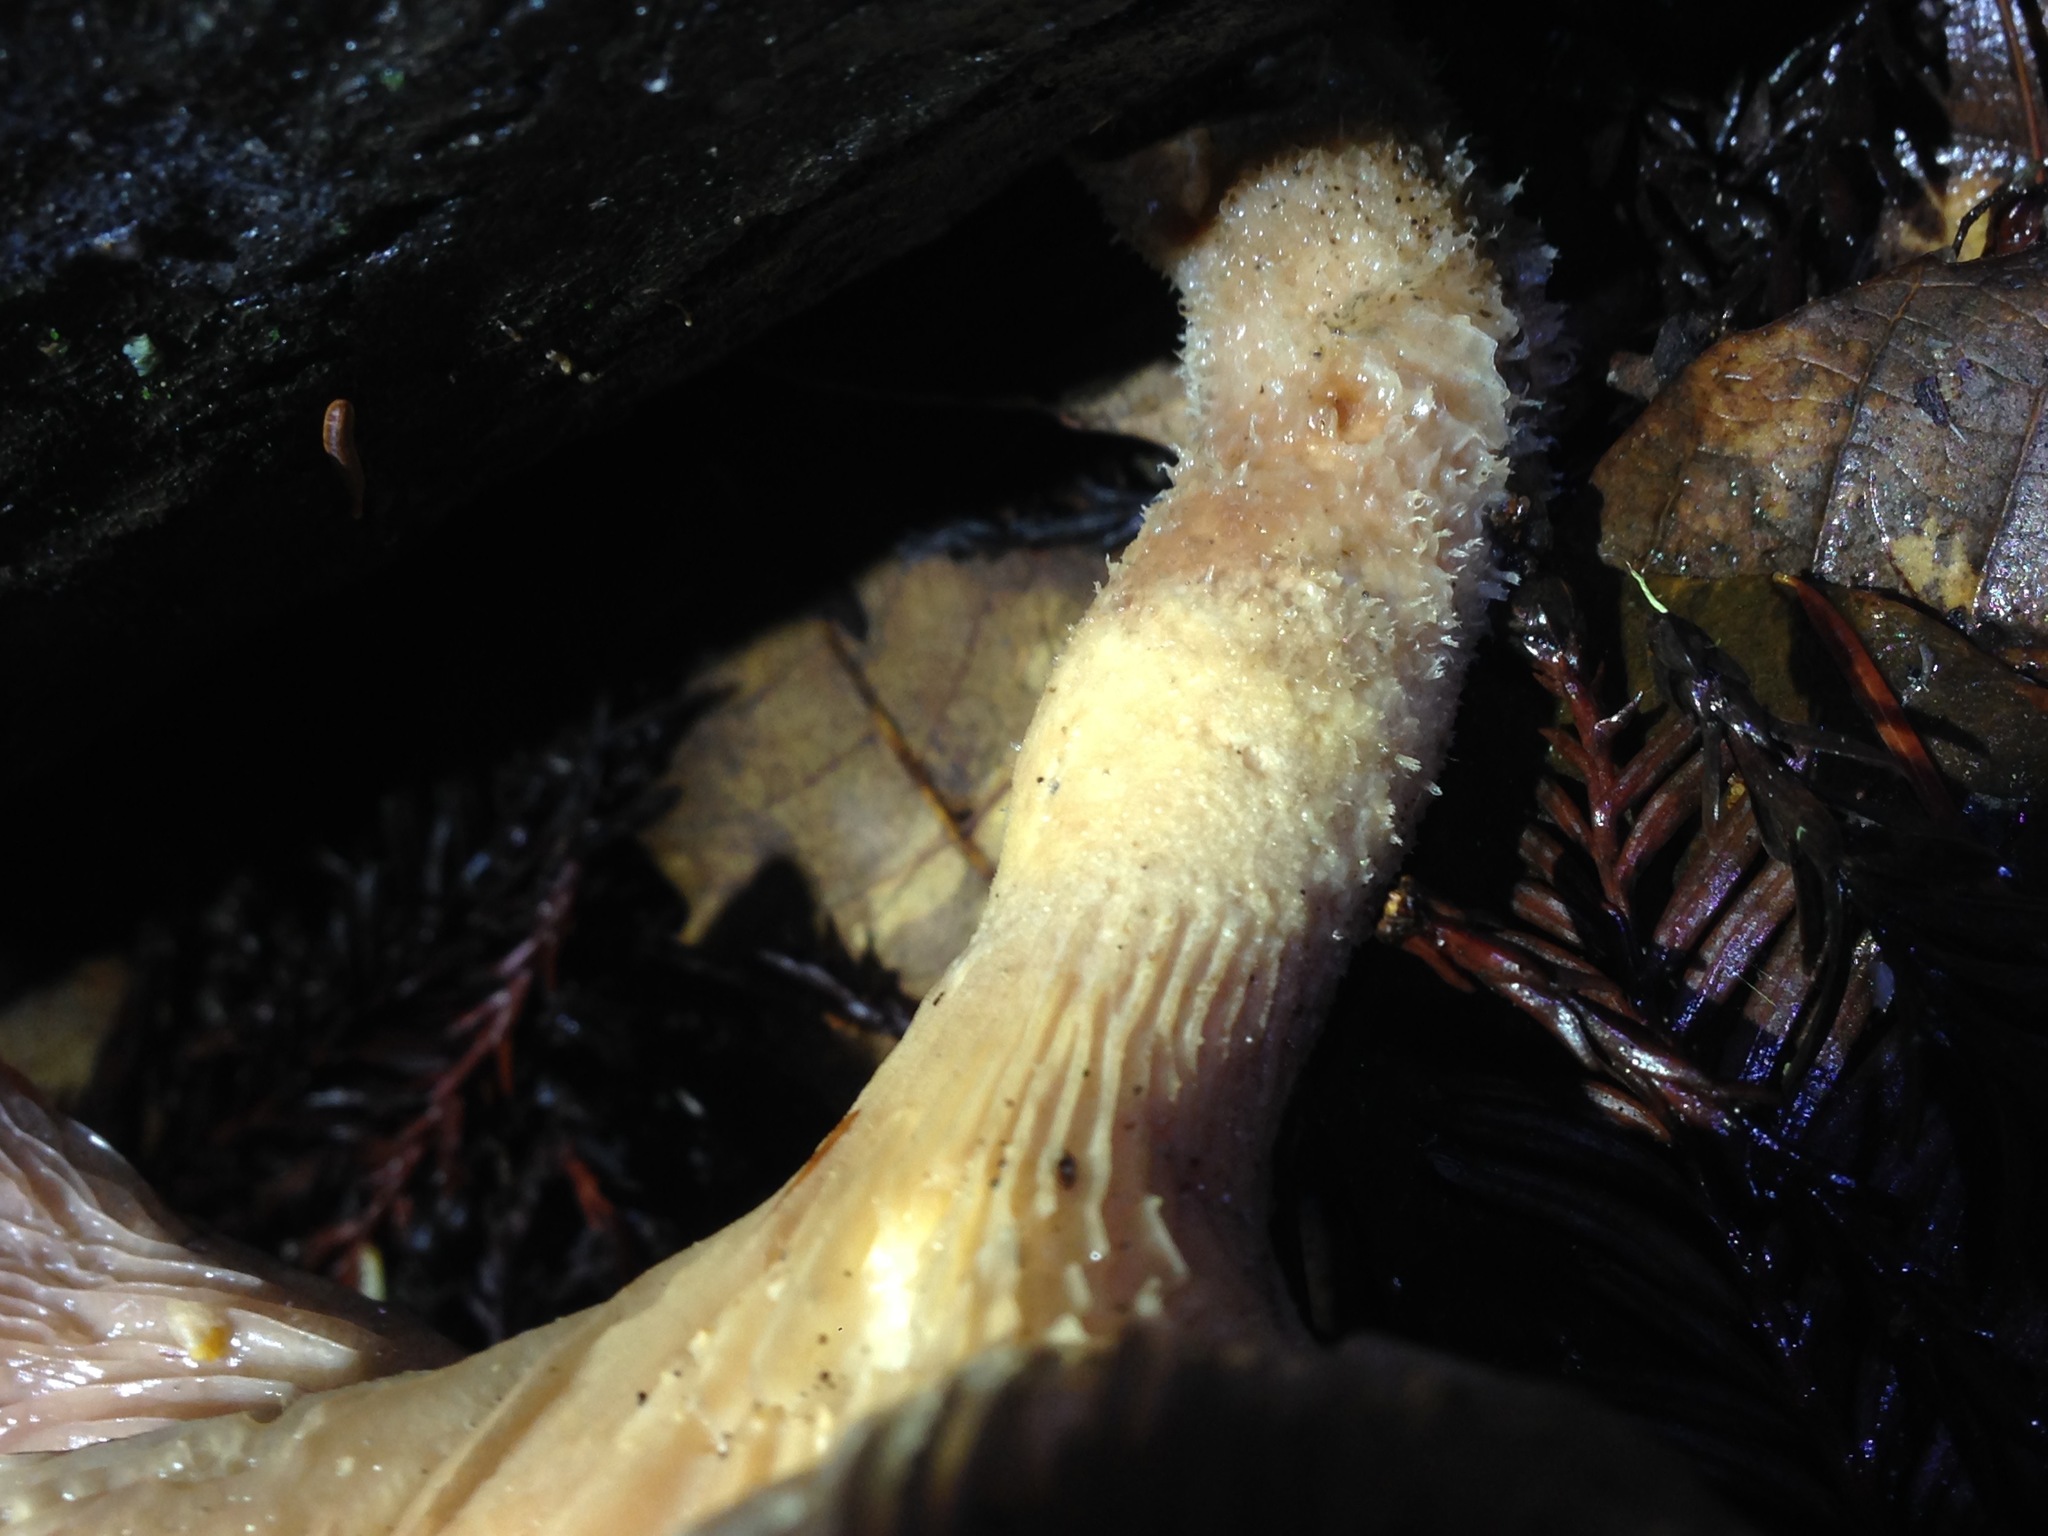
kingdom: Fungi
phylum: Basidiomycota
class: Agaricomycetes
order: Polyporales
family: Panaceae
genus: Panus
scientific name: Panus conchatus
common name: Lilac oysterling
